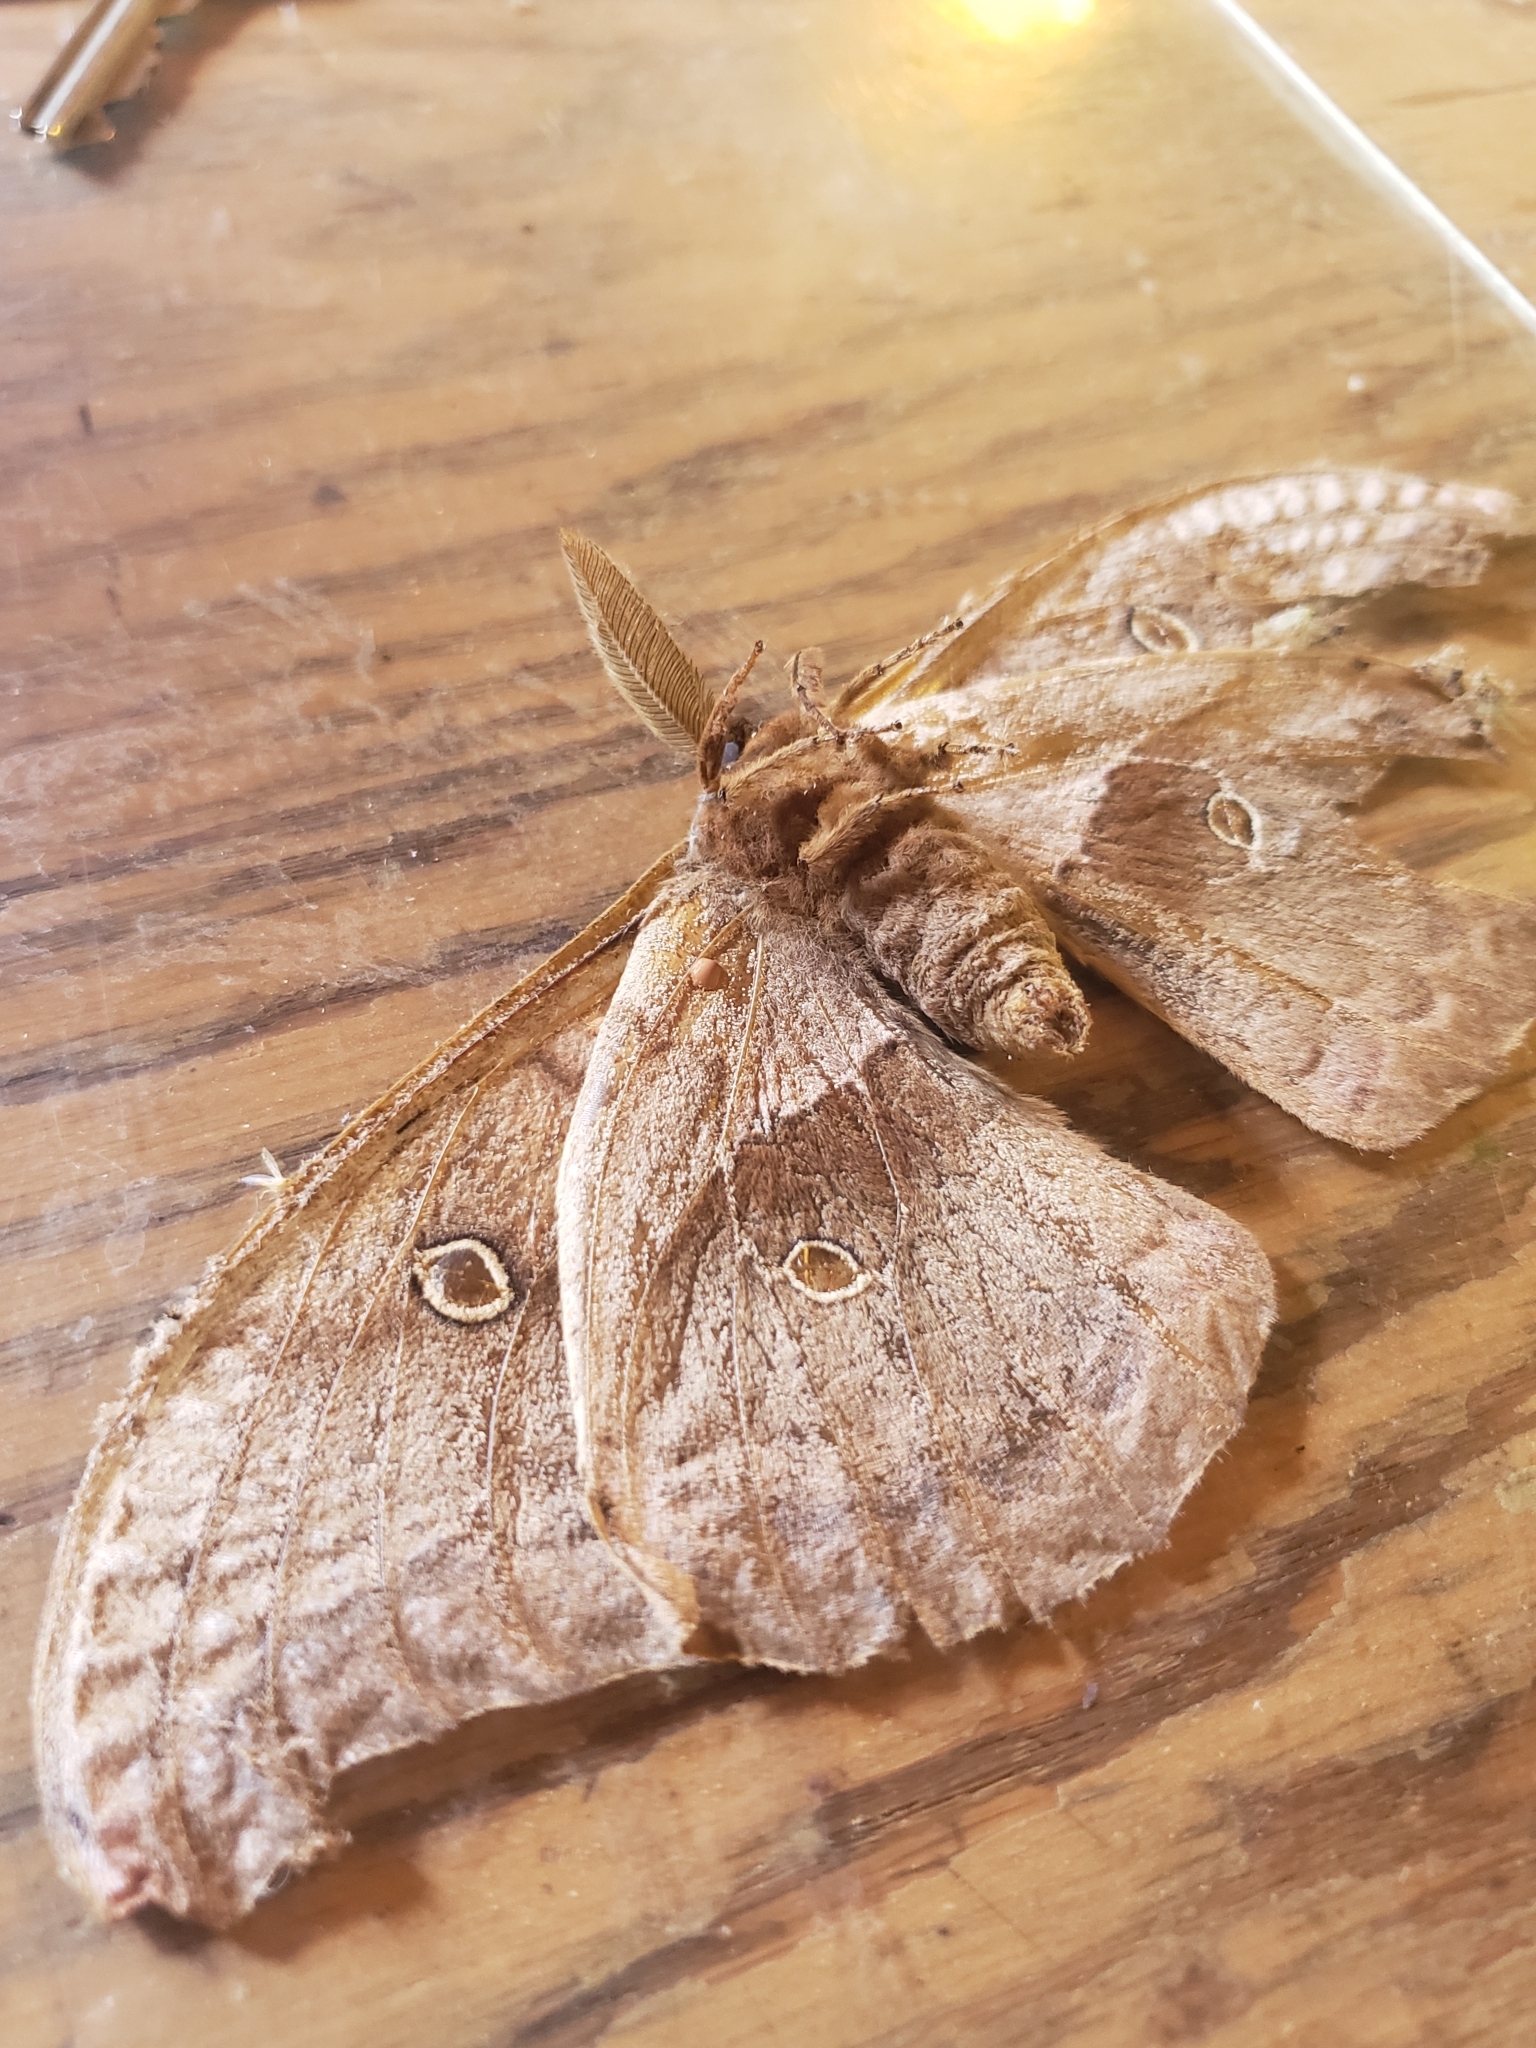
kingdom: Animalia
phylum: Arthropoda
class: Insecta
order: Lepidoptera
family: Saturniidae
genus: Antheraea
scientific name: Antheraea polyphemus
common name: Polyphemus moth
